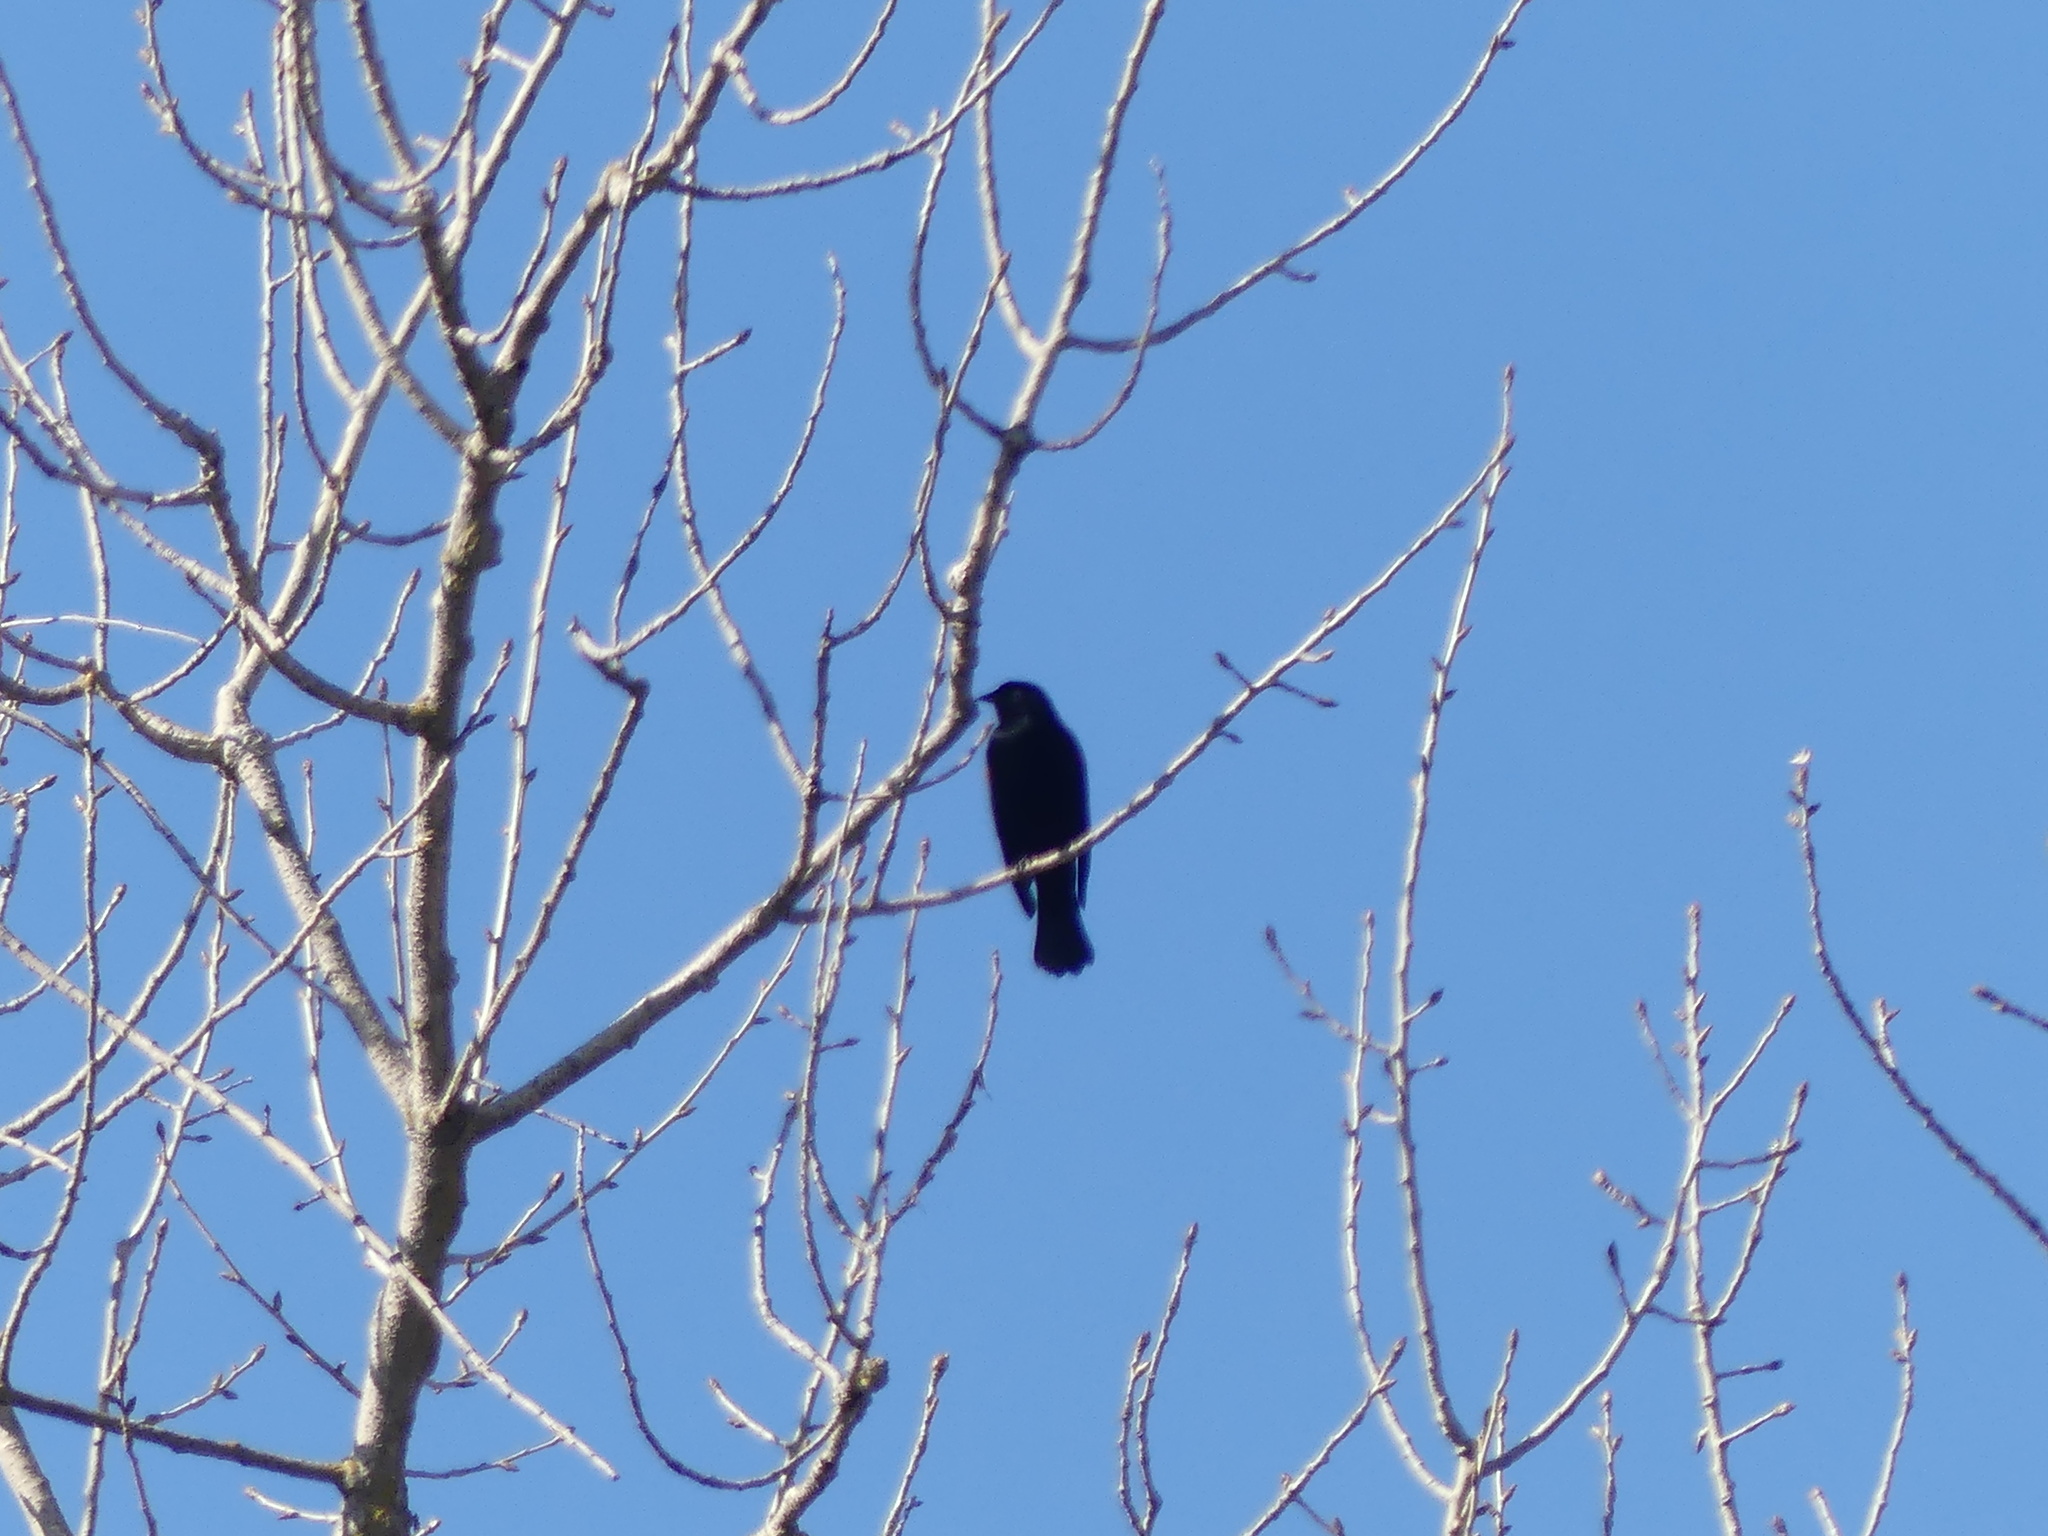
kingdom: Animalia
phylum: Chordata
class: Aves
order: Passeriformes
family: Icteridae
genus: Agelaius
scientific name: Agelaius phoeniceus
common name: Red-winged blackbird
